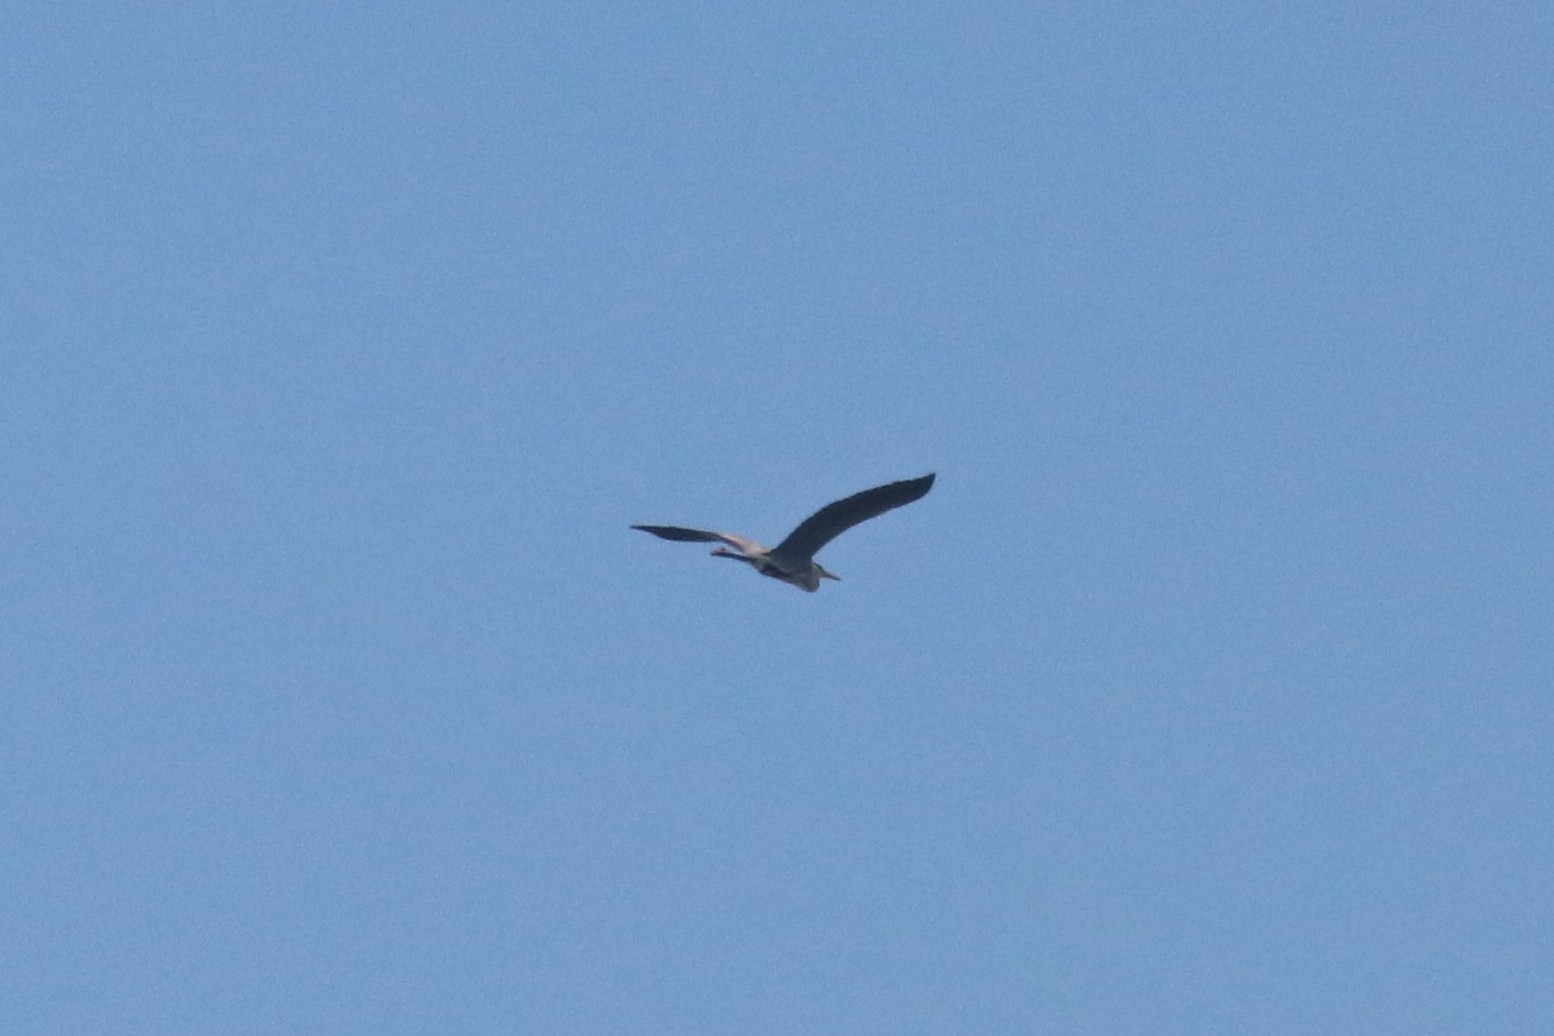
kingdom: Animalia
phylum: Chordata
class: Aves
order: Pelecaniformes
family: Ardeidae
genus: Ardea
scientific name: Ardea cinerea
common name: Grey heron
